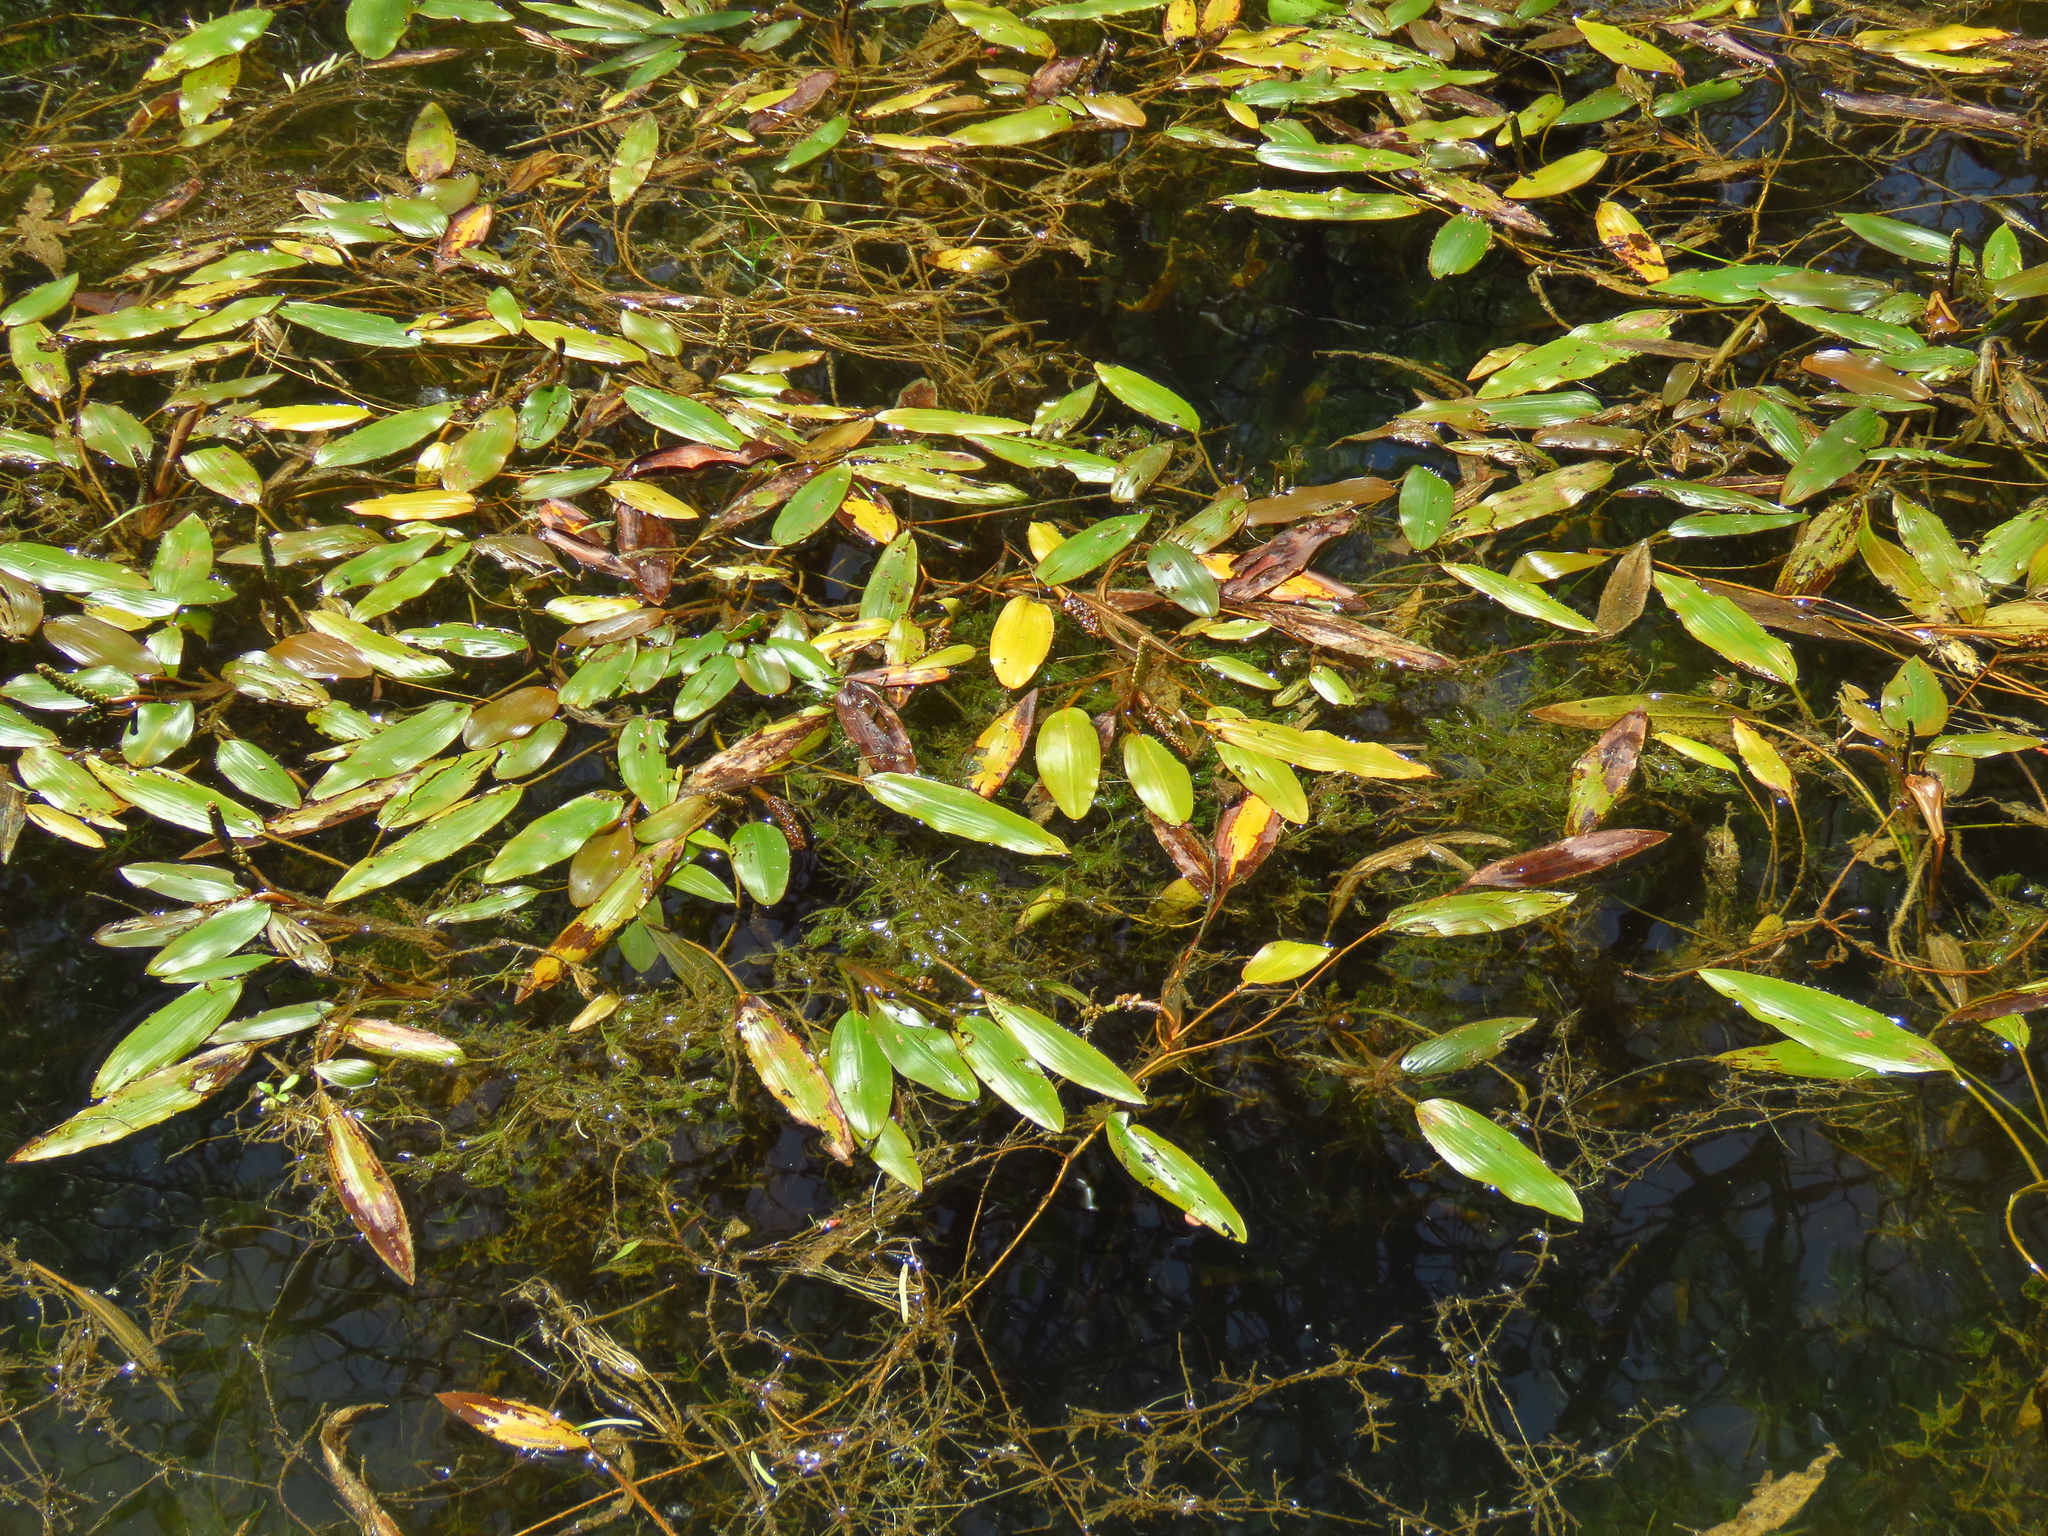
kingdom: Plantae
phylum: Tracheophyta
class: Liliopsida
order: Alismatales
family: Potamogetonaceae
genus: Potamogeton
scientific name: Potamogeton nodosus
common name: Loddon pondweed
